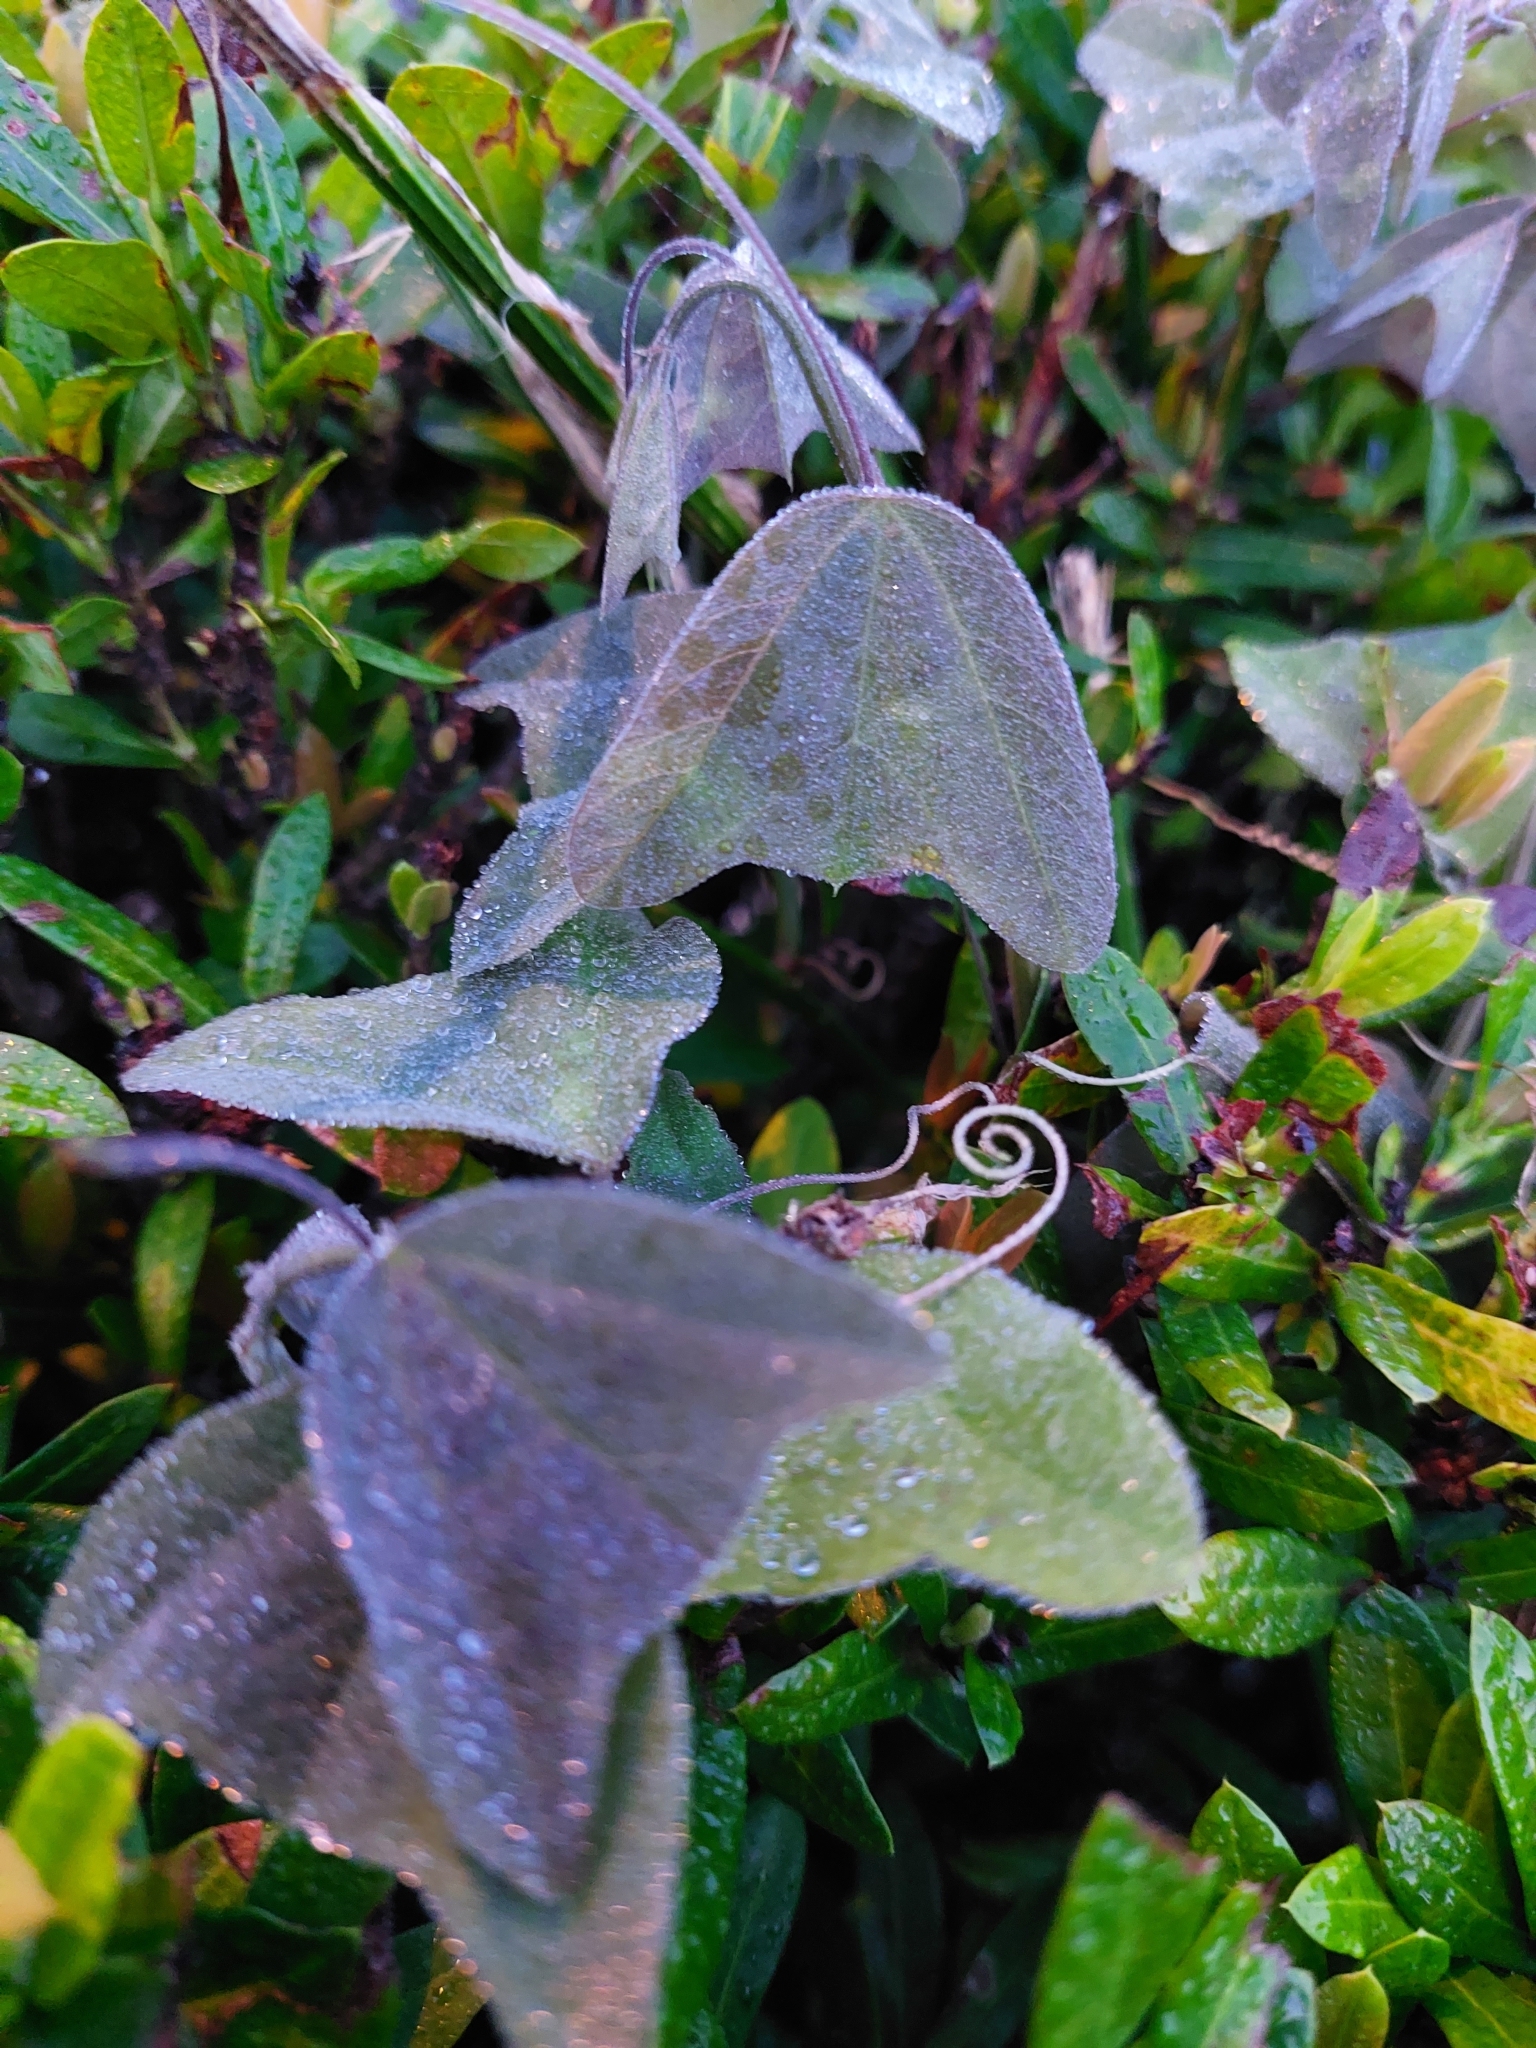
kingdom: Plantae
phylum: Tracheophyta
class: Magnoliopsida
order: Malpighiales
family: Passifloraceae
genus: Passiflora
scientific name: Passiflora biflora
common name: Twoflower passionflower
